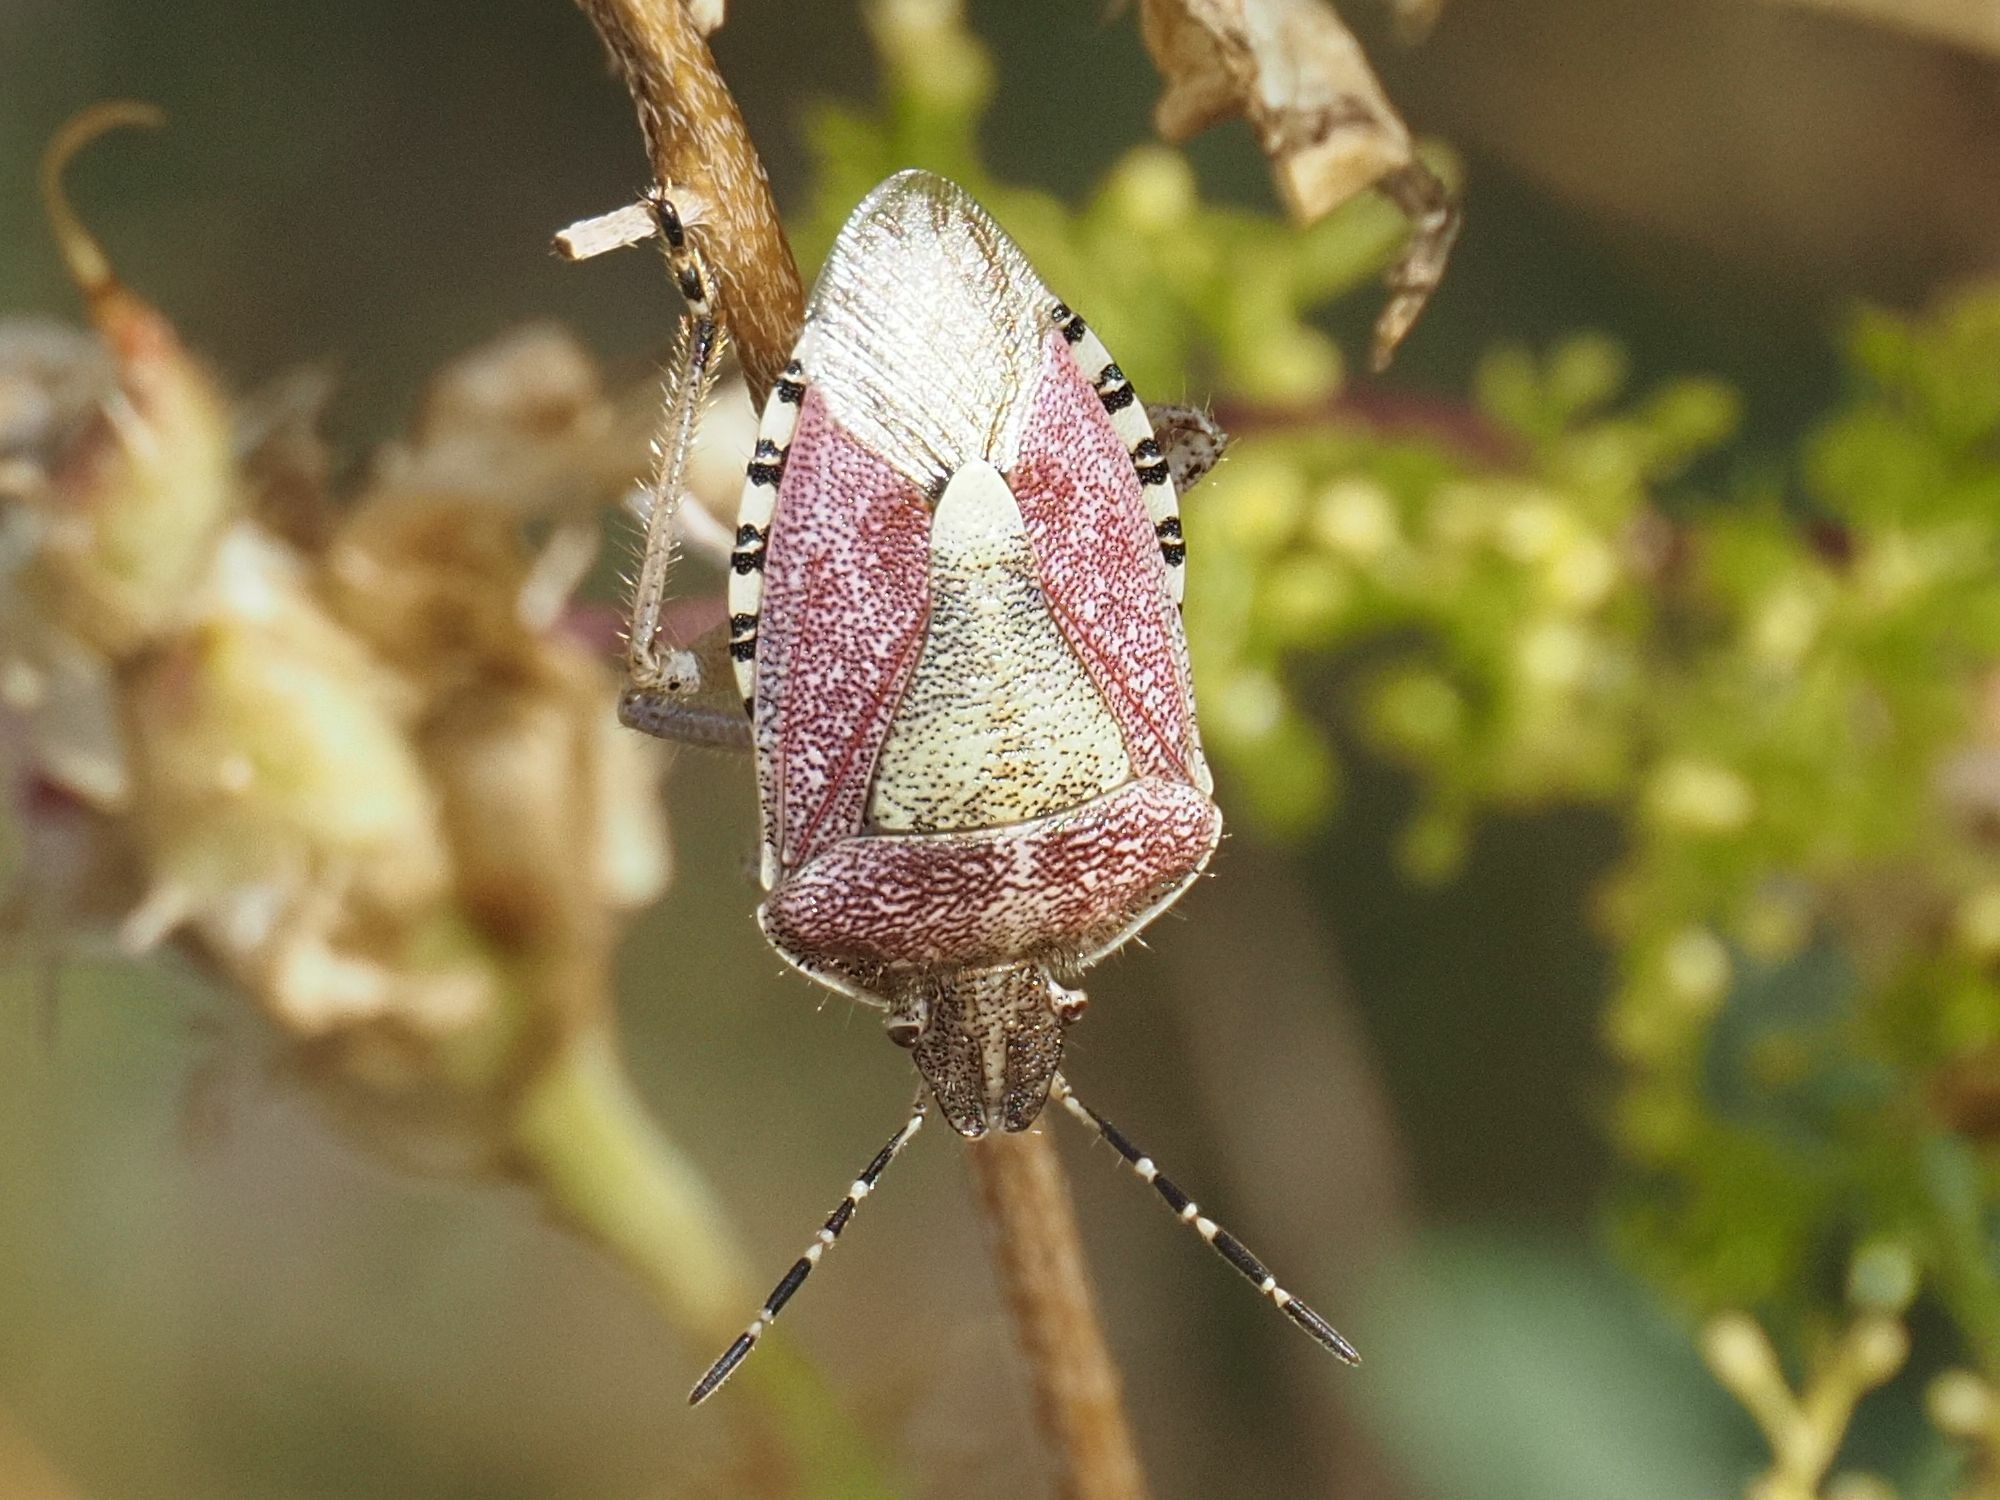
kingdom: Animalia
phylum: Arthropoda
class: Insecta
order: Hemiptera
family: Pentatomidae
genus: Dolycoris
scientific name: Dolycoris baccarum
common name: Sloe bug
